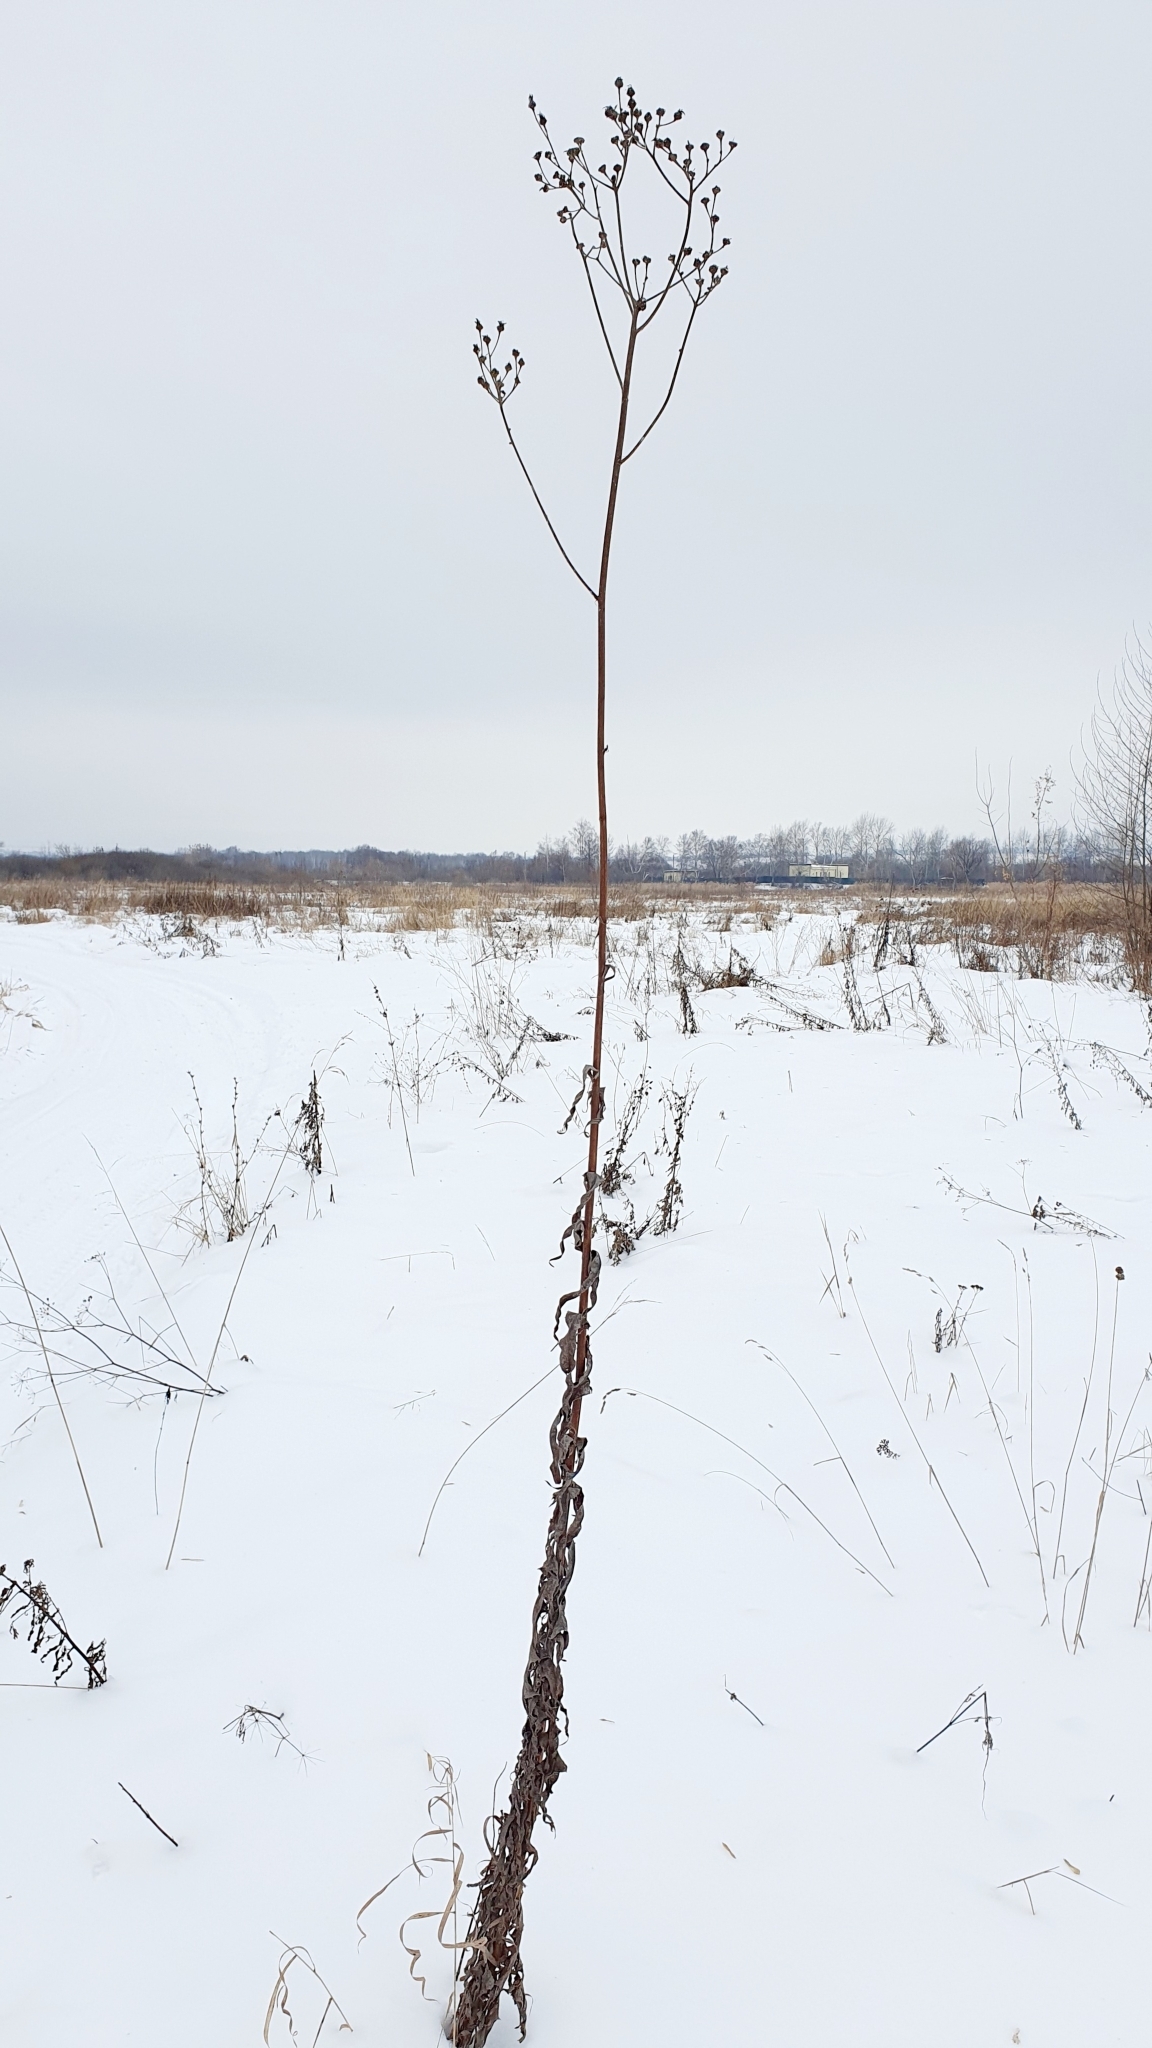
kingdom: Plantae
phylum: Tracheophyta
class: Magnoliopsida
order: Asterales
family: Asteraceae
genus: Sonchus
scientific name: Sonchus palustris
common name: Marsh sow-thistle
